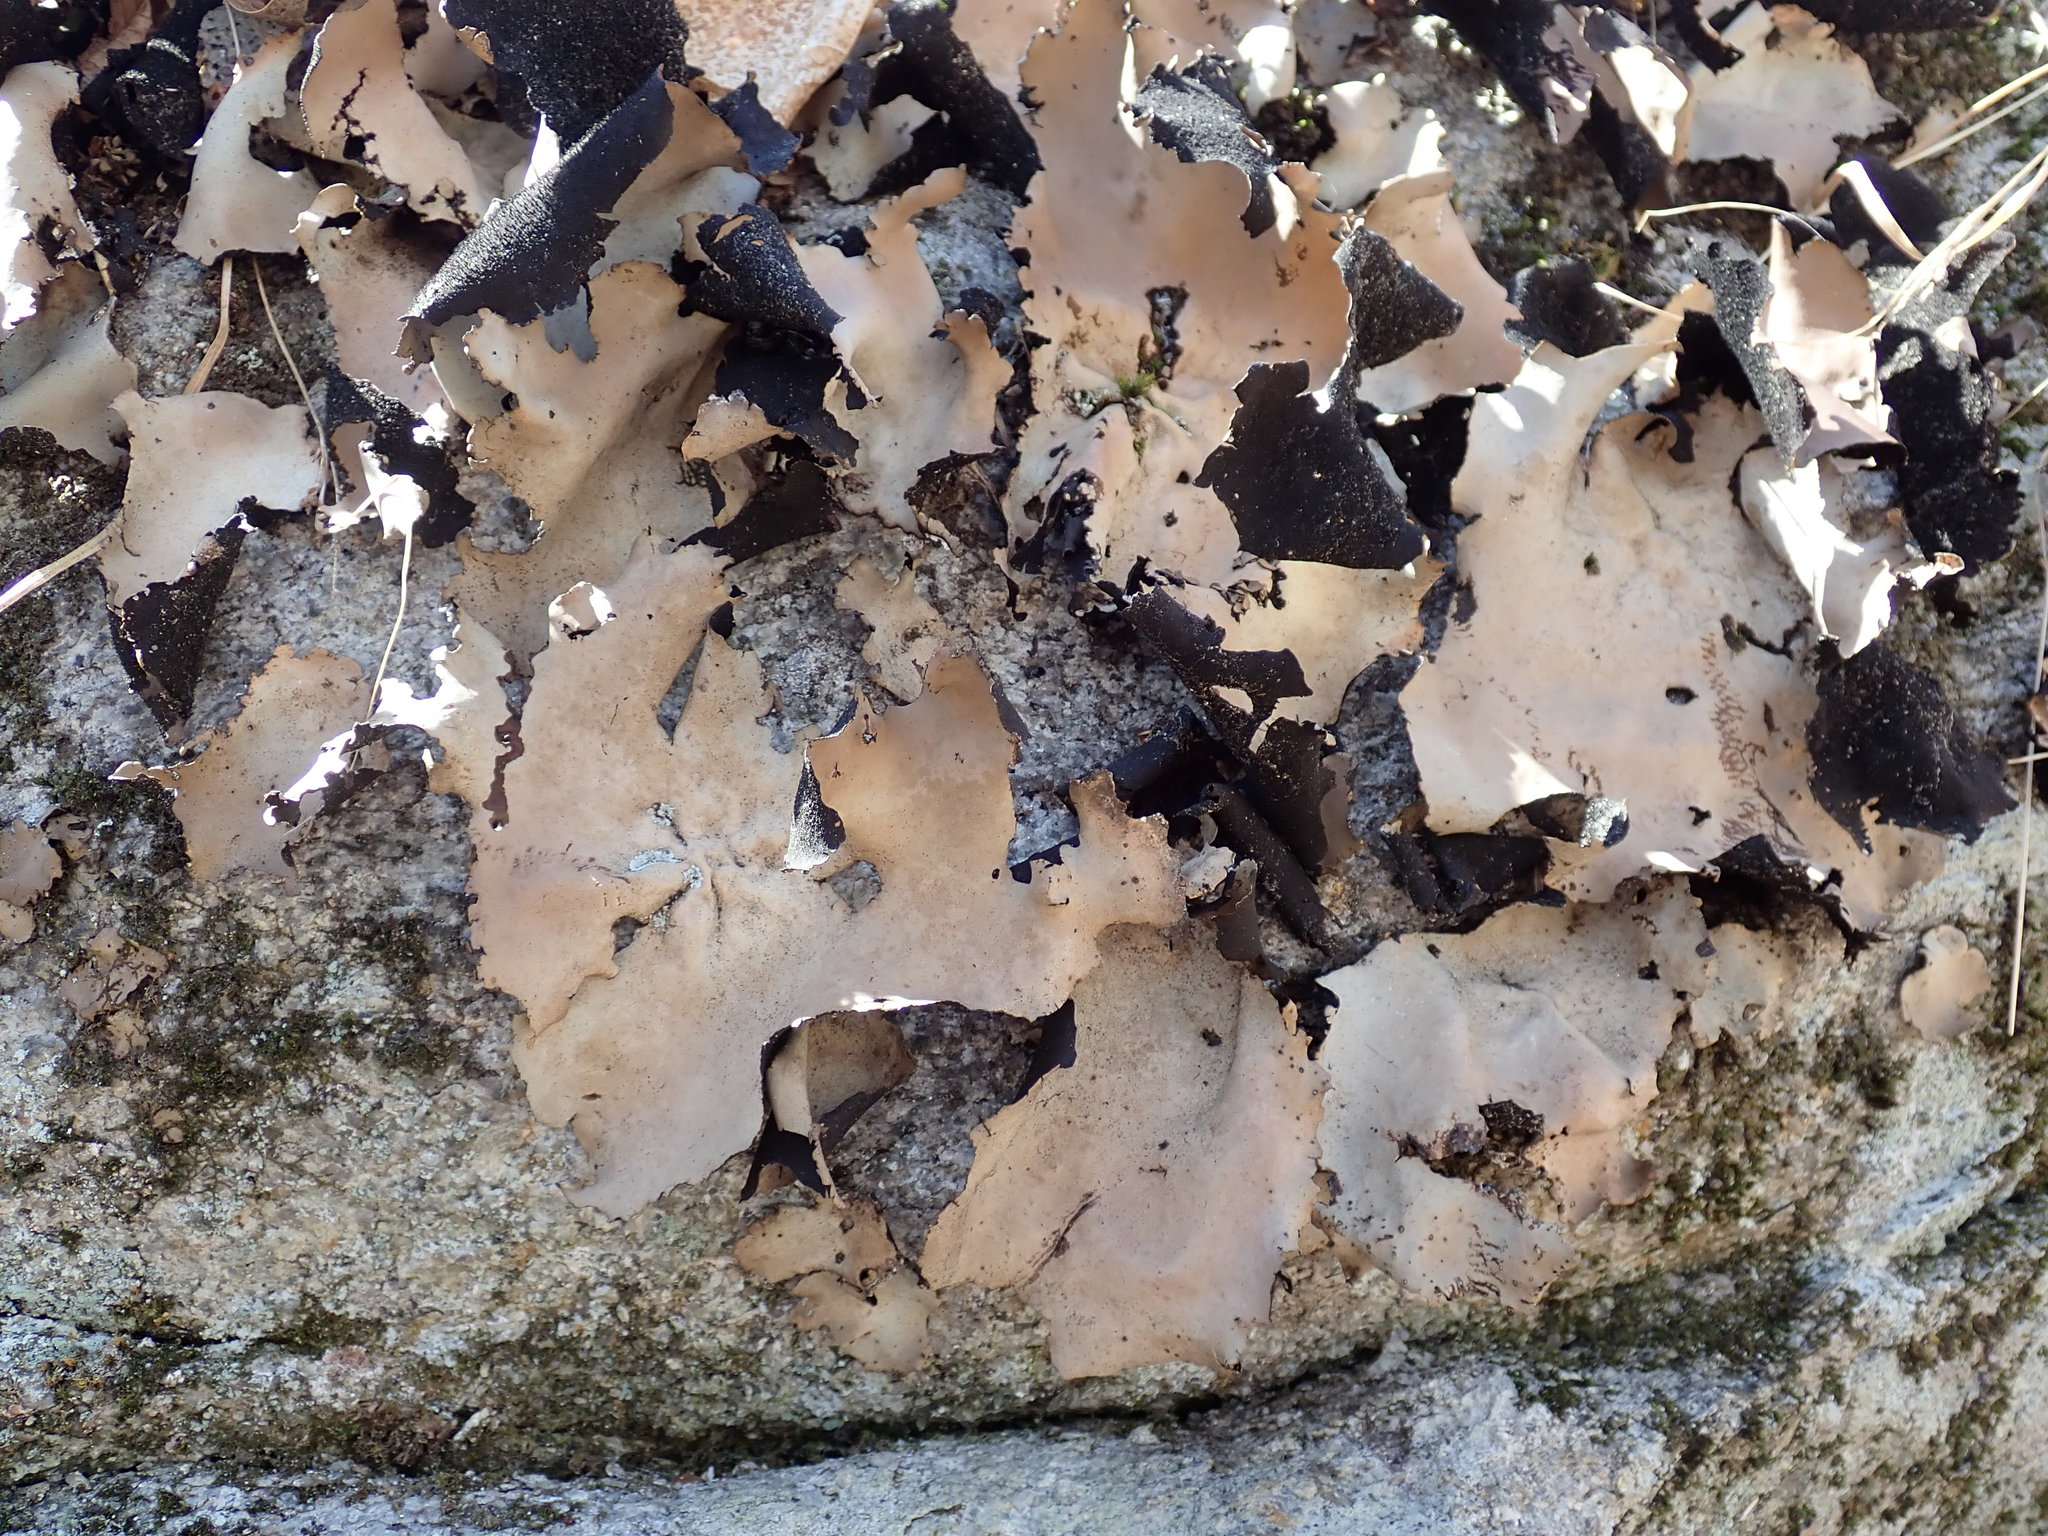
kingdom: Fungi
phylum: Ascomycota
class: Lecanoromycetes
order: Umbilicariales
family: Umbilicariaceae
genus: Umbilicaria
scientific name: Umbilicaria mammulata
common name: Smooth rock tripe
